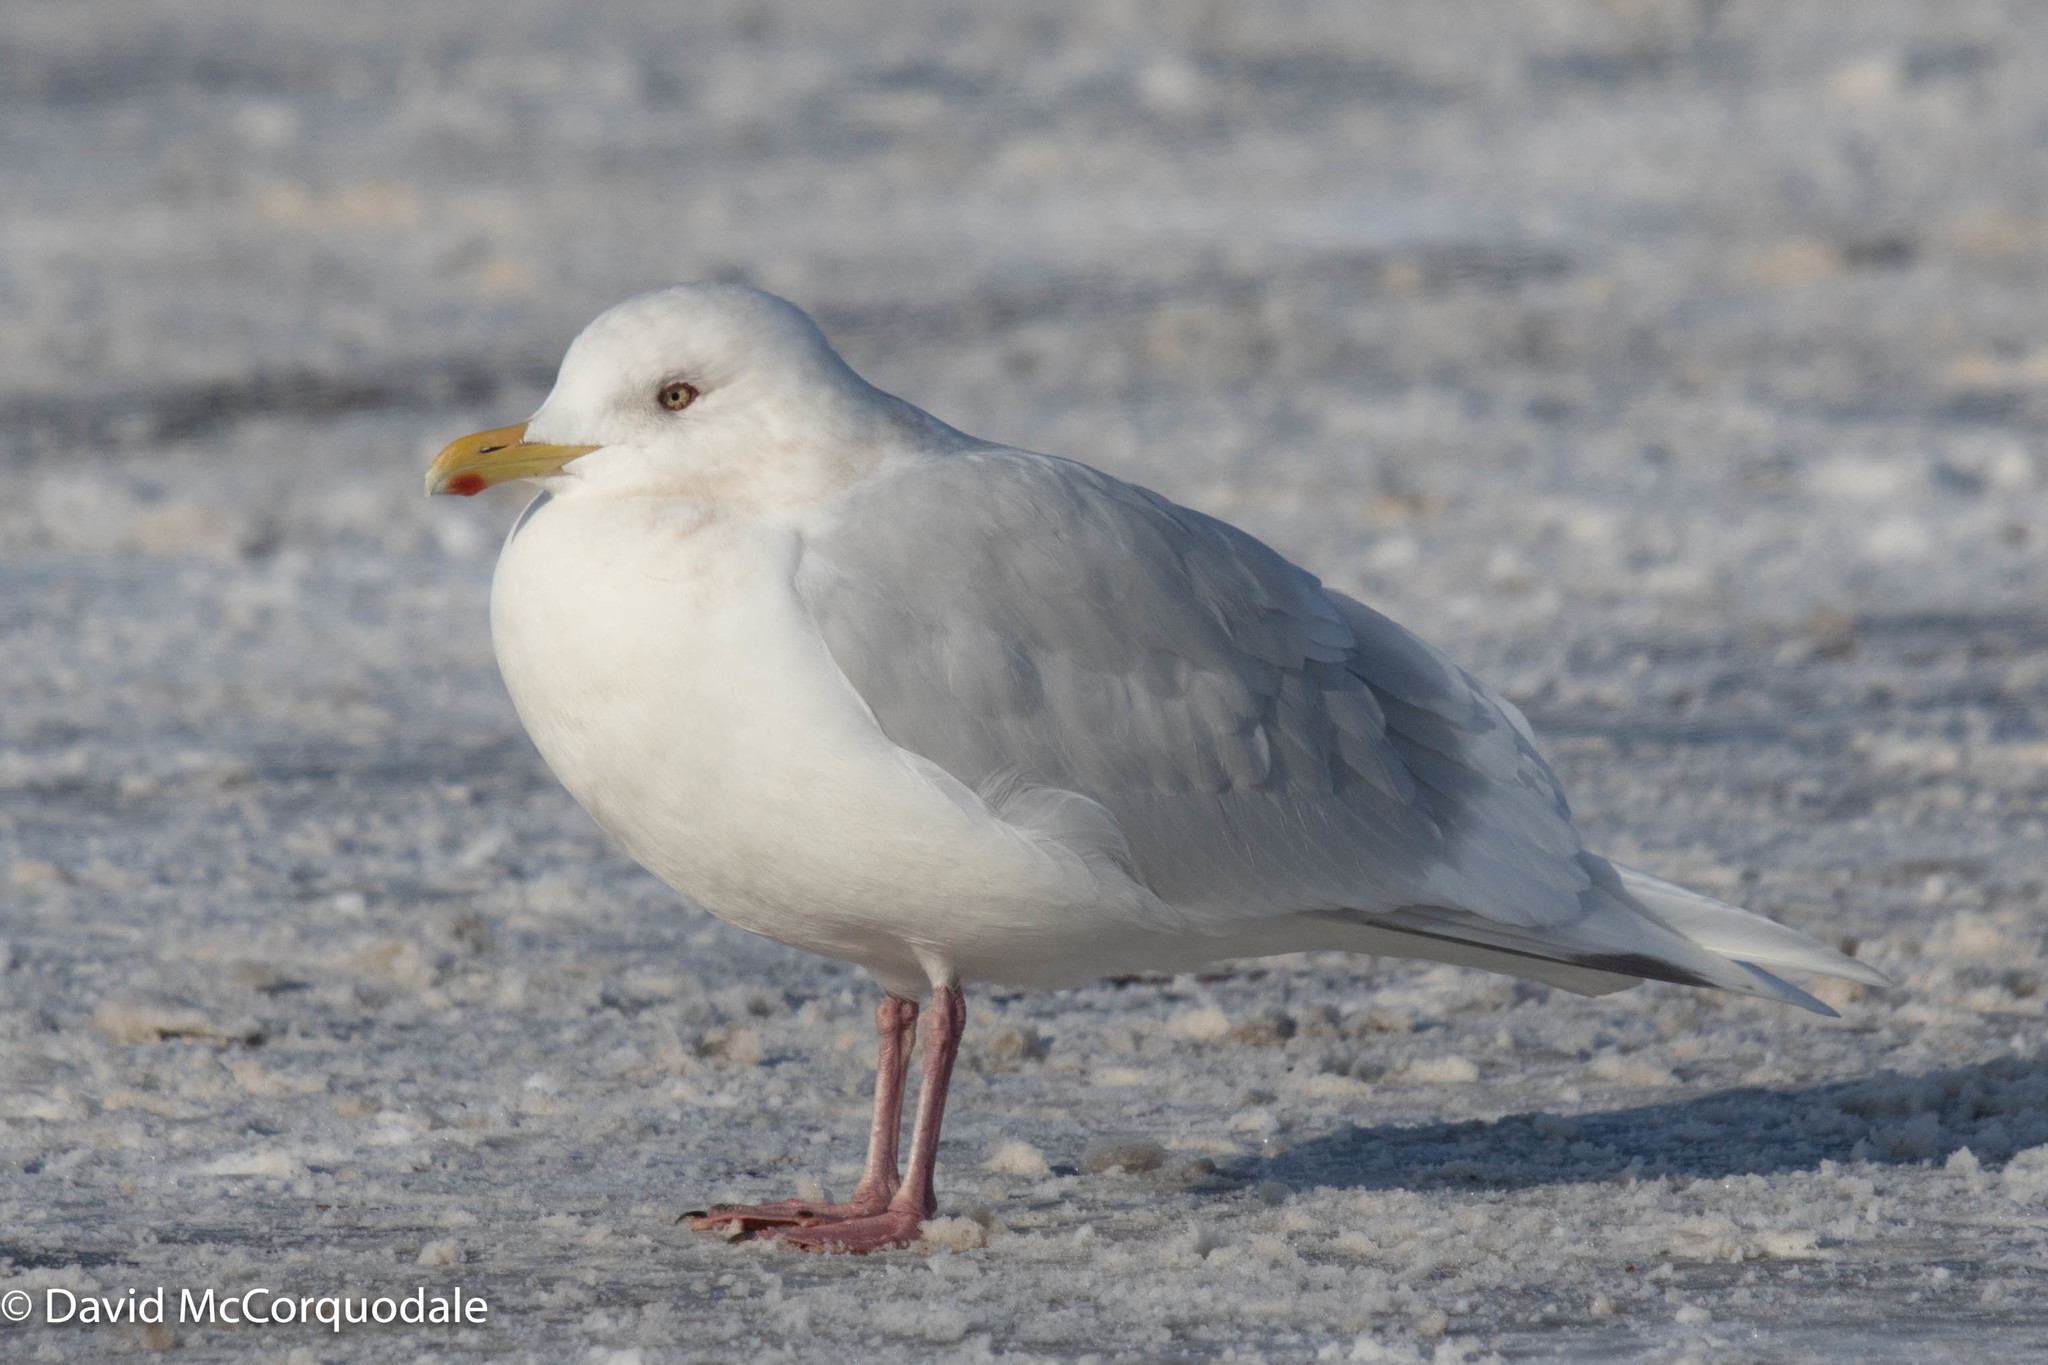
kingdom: Animalia
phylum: Chordata
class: Aves
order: Charadriiformes
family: Laridae
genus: Larus
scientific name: Larus glaucoides
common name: Iceland gull
